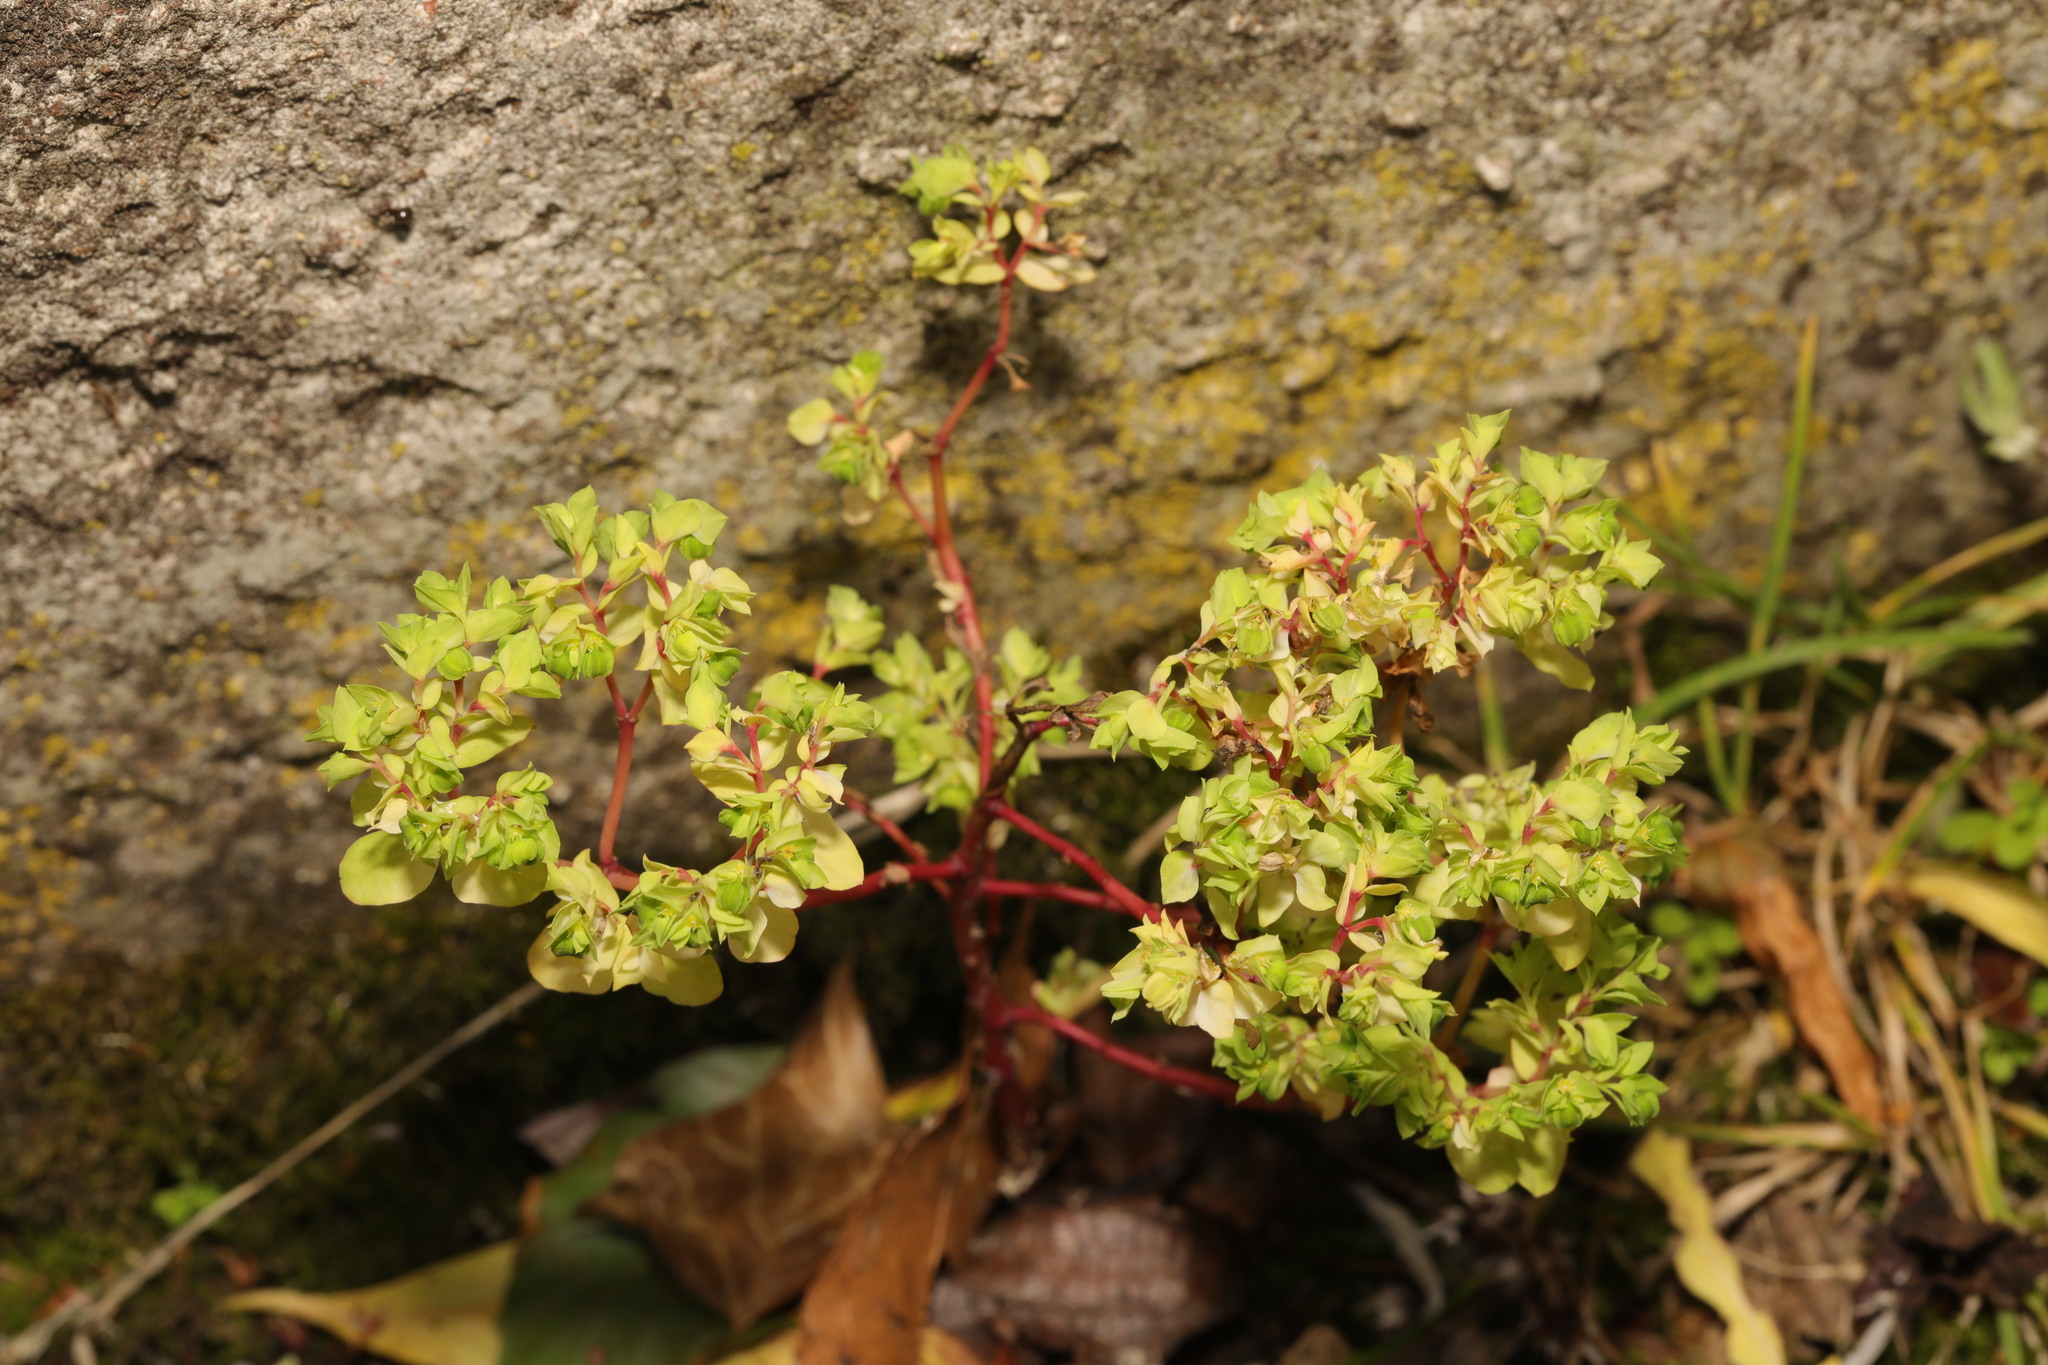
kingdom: Plantae
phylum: Tracheophyta
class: Magnoliopsida
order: Malpighiales
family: Euphorbiaceae
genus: Euphorbia
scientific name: Euphorbia peplus
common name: Petty spurge
